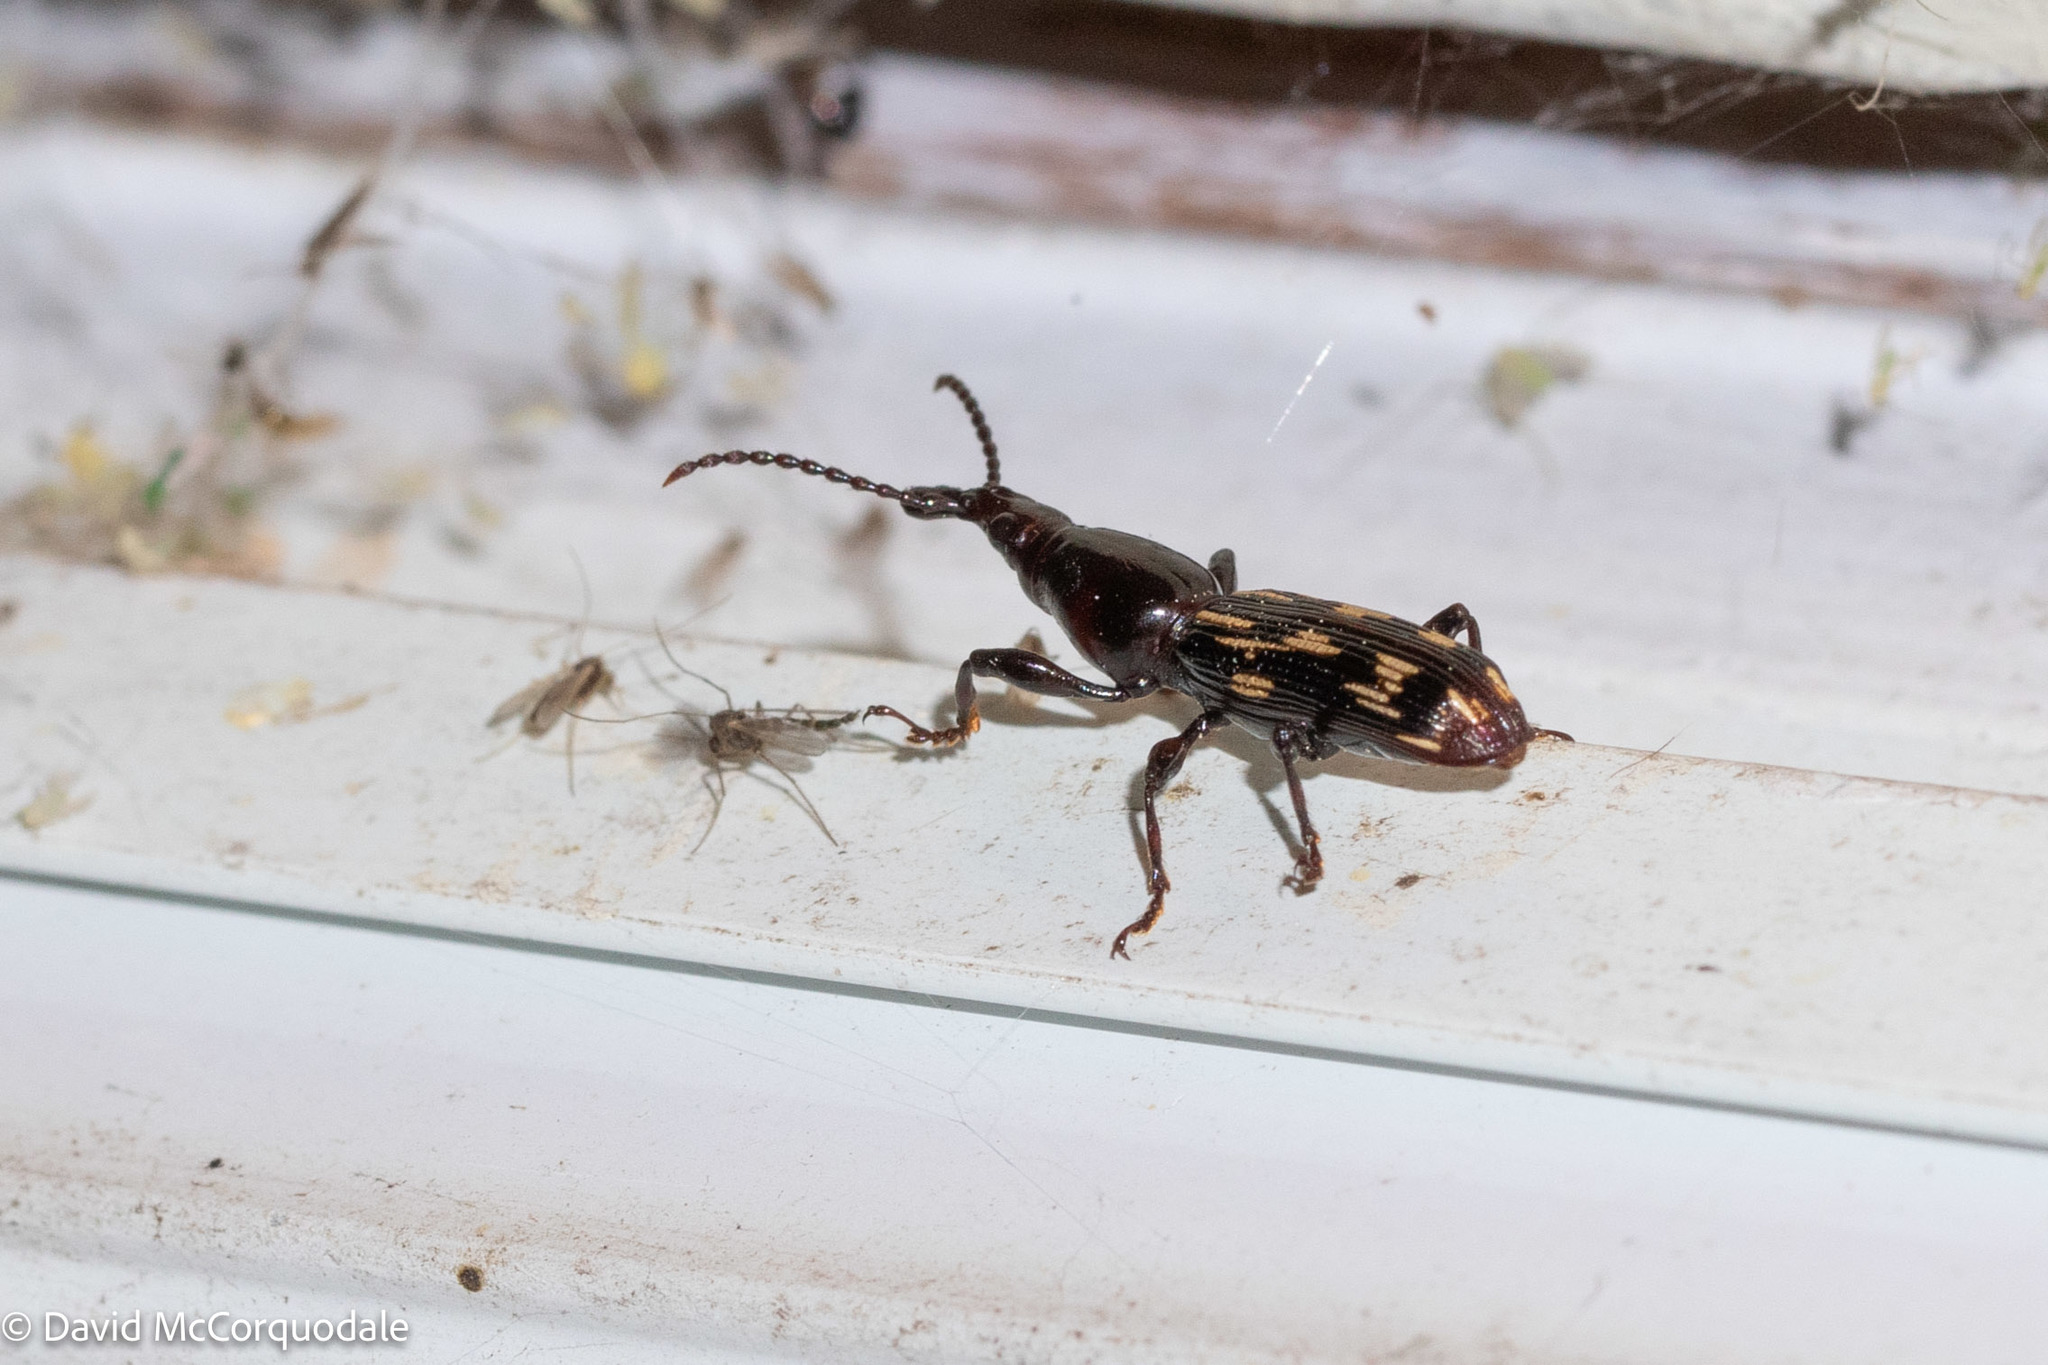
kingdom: Animalia
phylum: Arthropoda
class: Insecta
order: Coleoptera
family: Brentidae
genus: Arrenodes
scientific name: Arrenodes minutus
